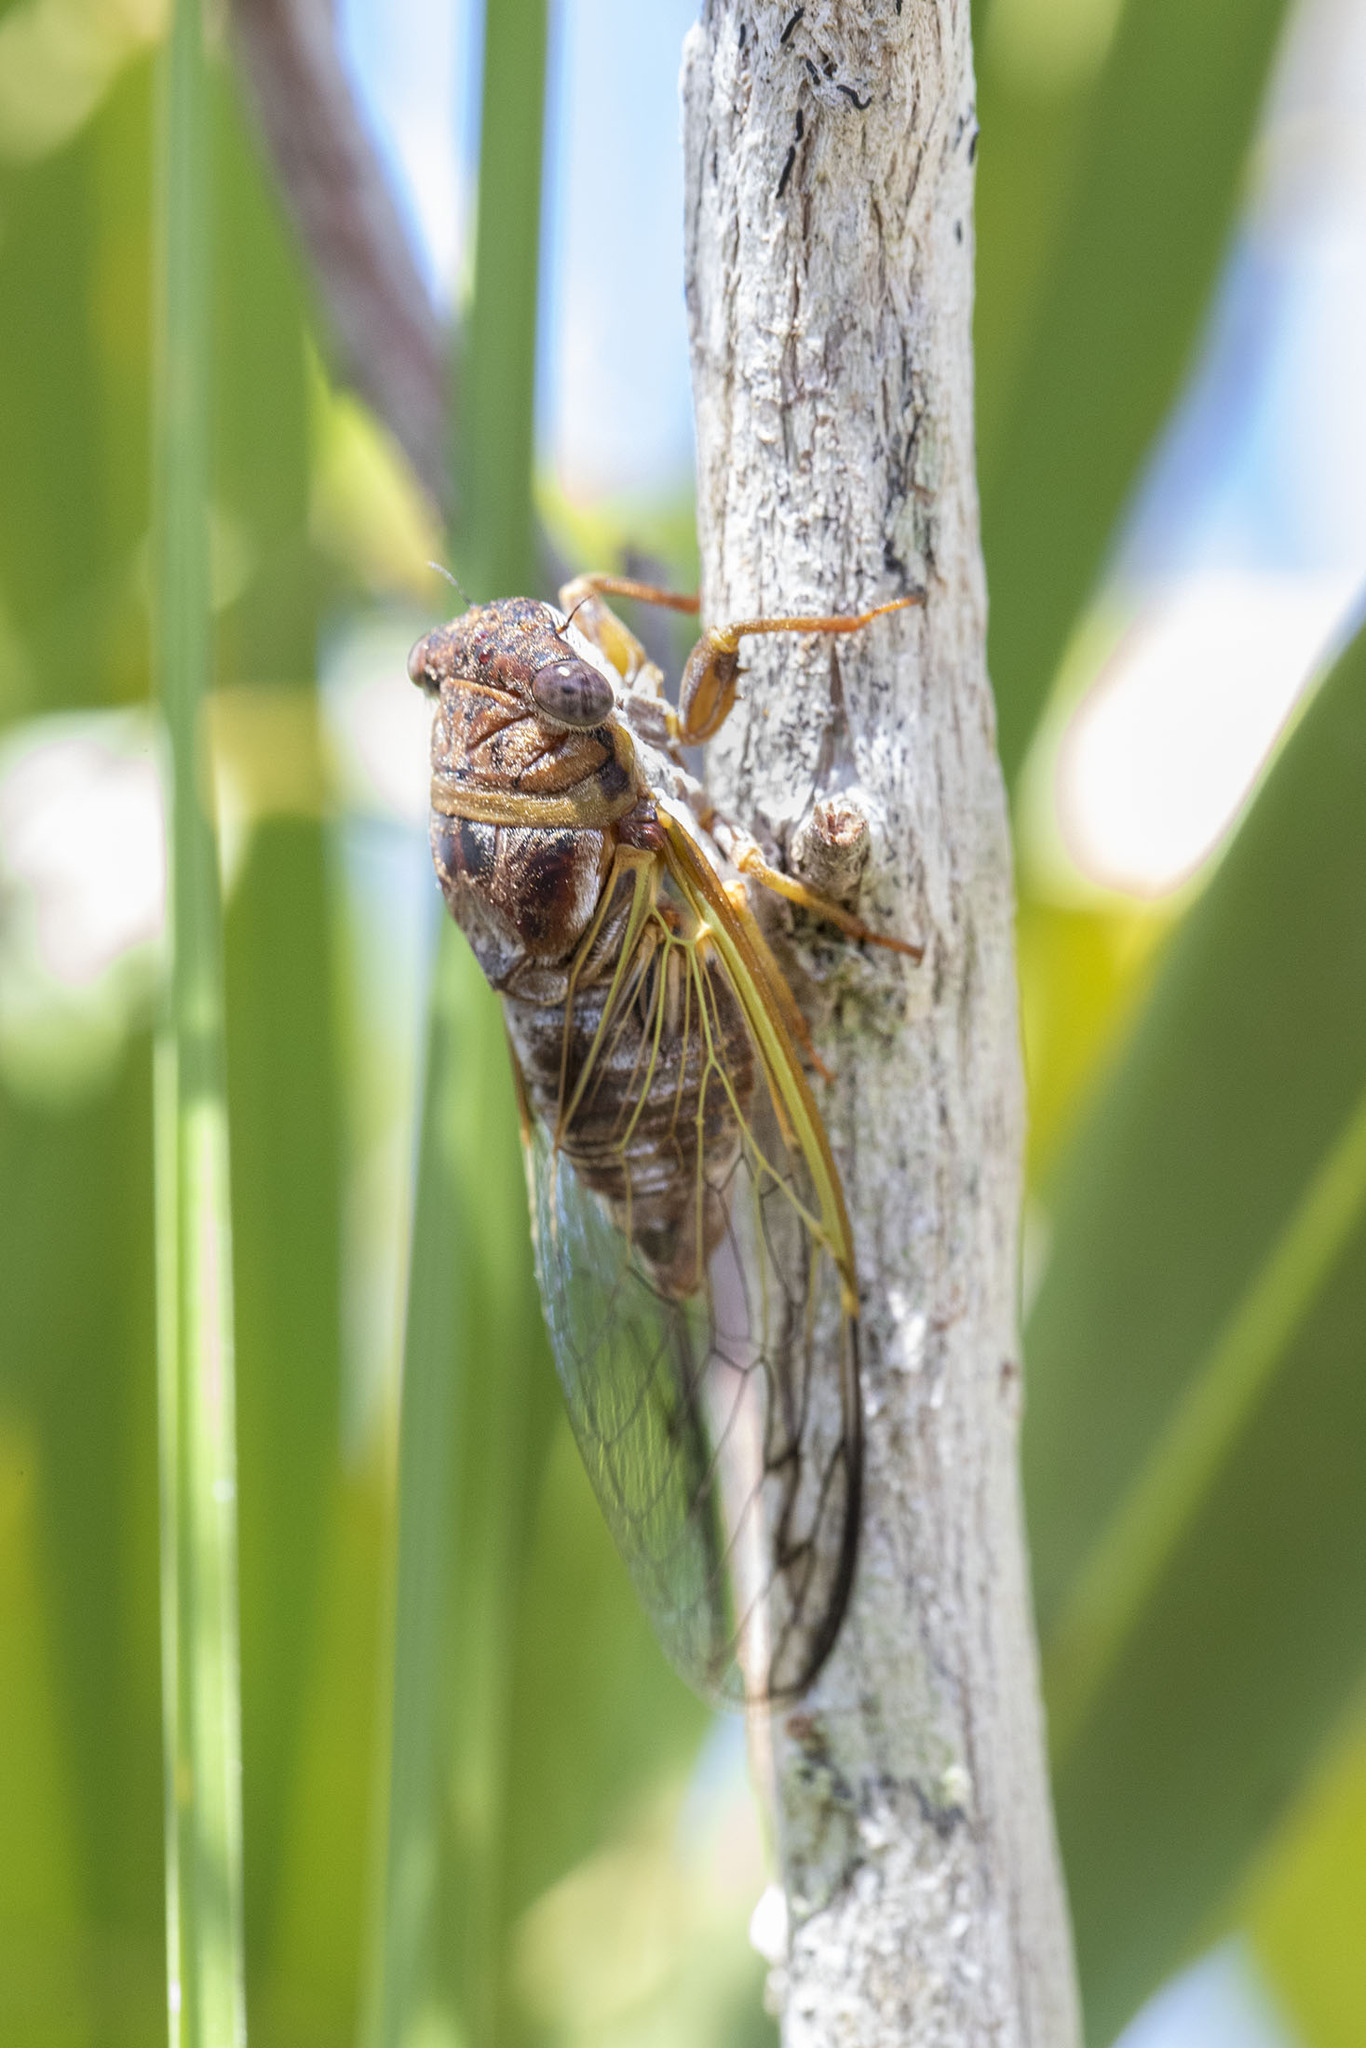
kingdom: Animalia
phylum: Arthropoda
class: Insecta
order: Hemiptera
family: Cicadidae
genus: Diceroprocta
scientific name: Diceroprocta olympusa
